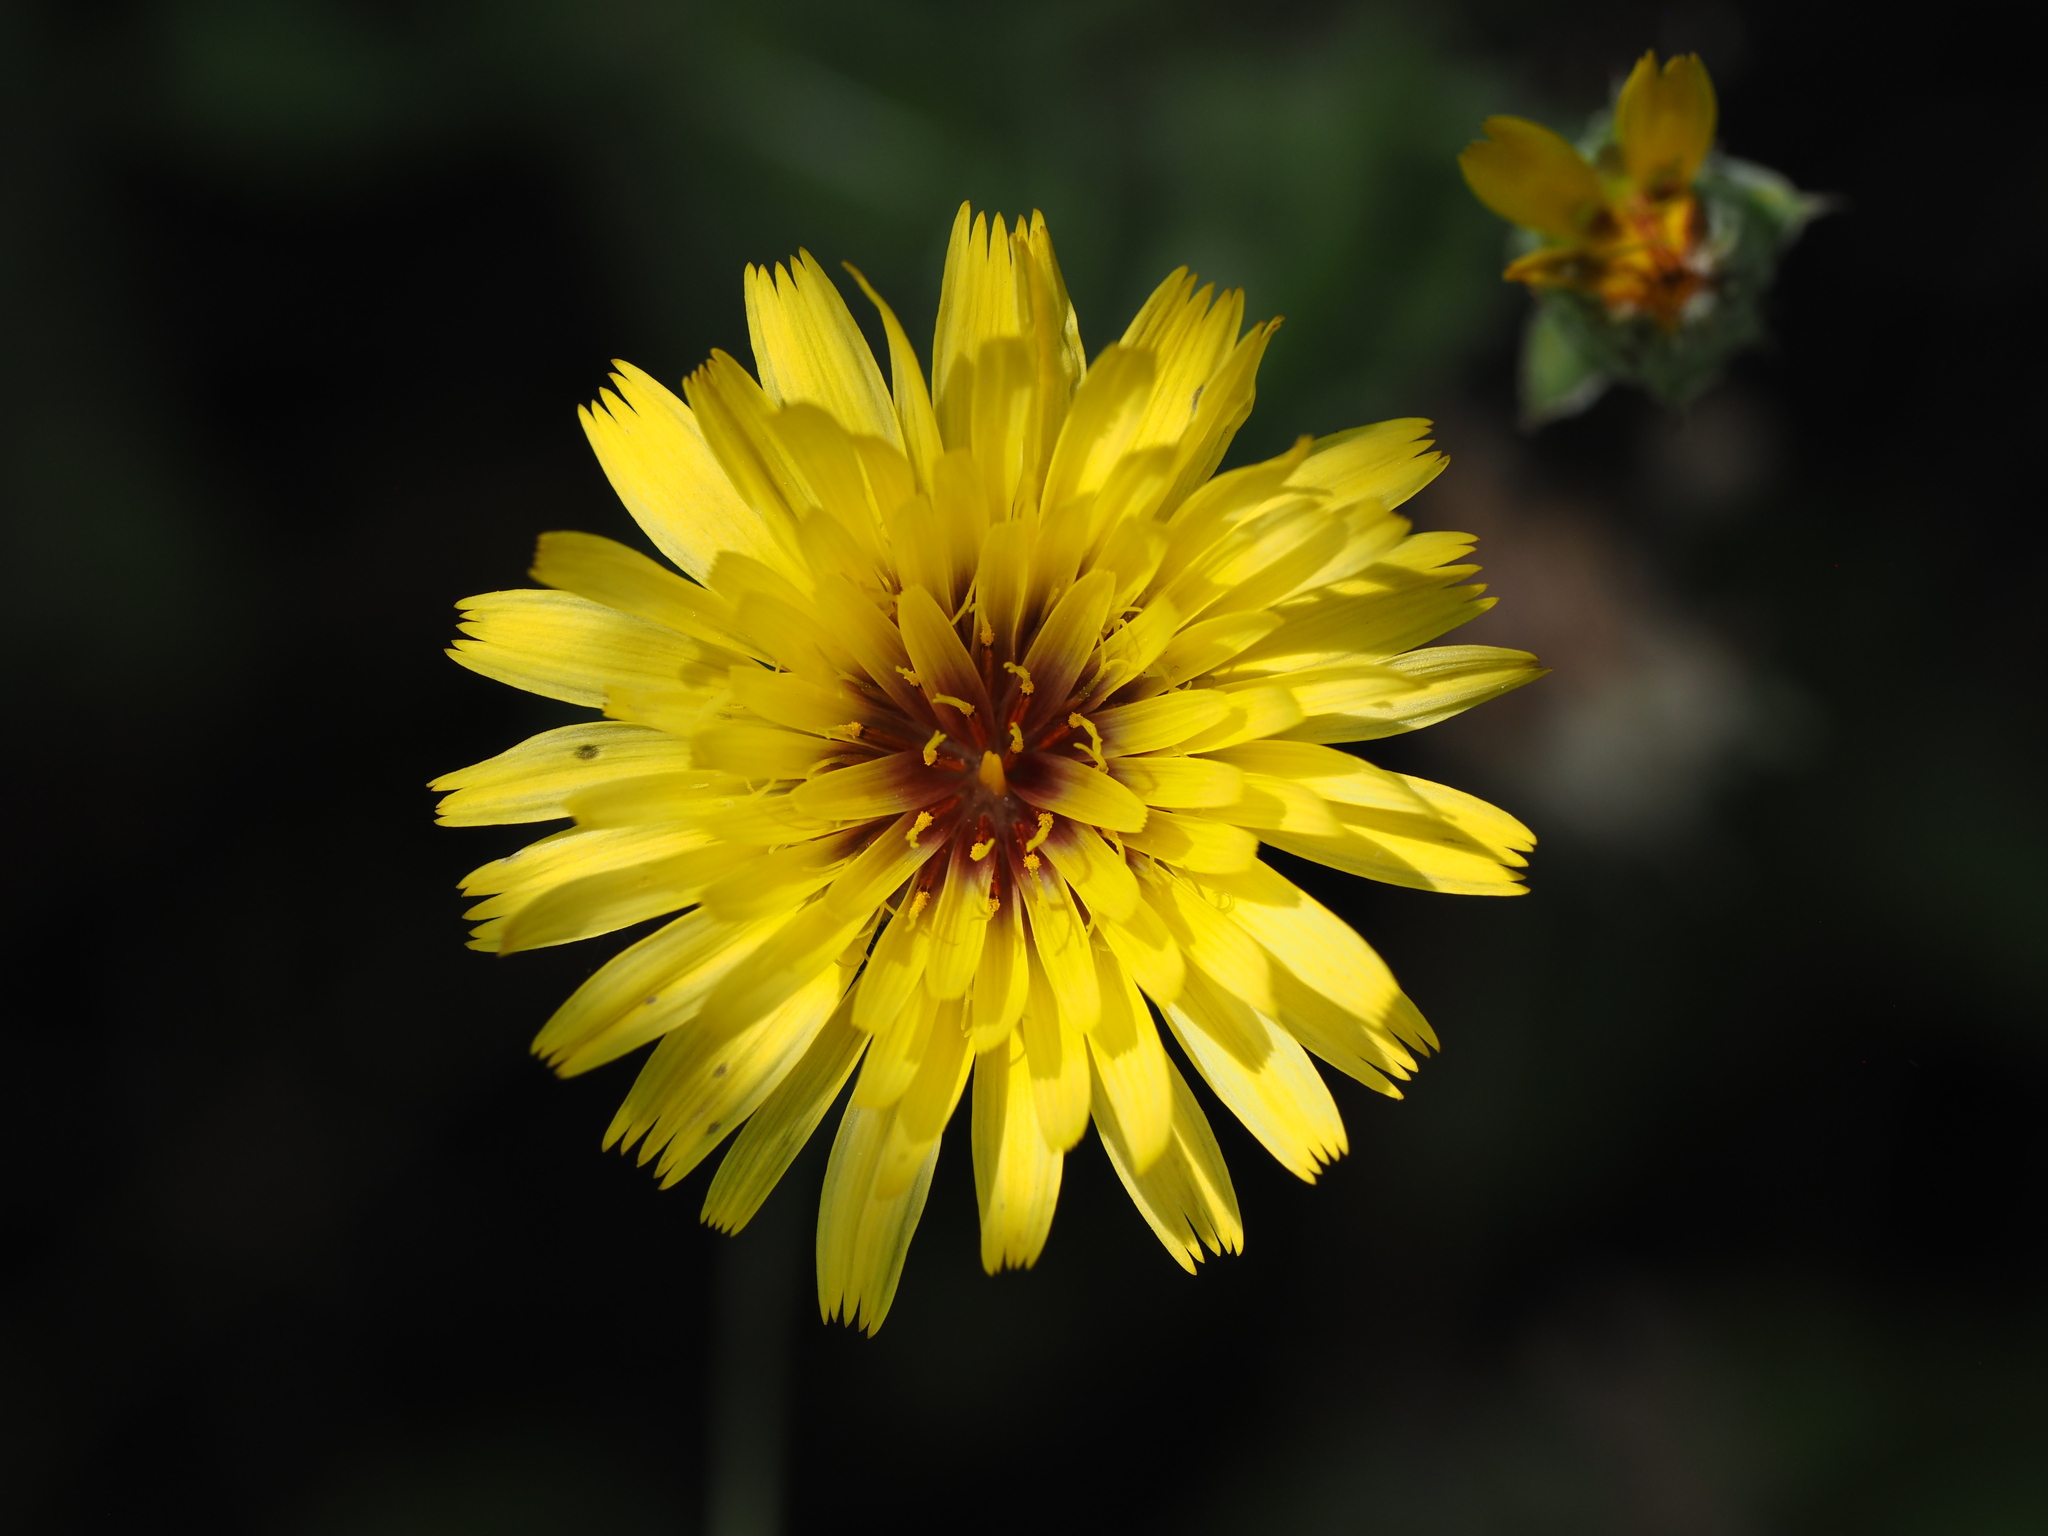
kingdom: Plantae
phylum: Tracheophyta
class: Magnoliopsida
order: Asterales
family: Asteraceae
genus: Reichardia
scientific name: Reichardia tingitana
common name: Reichardia
